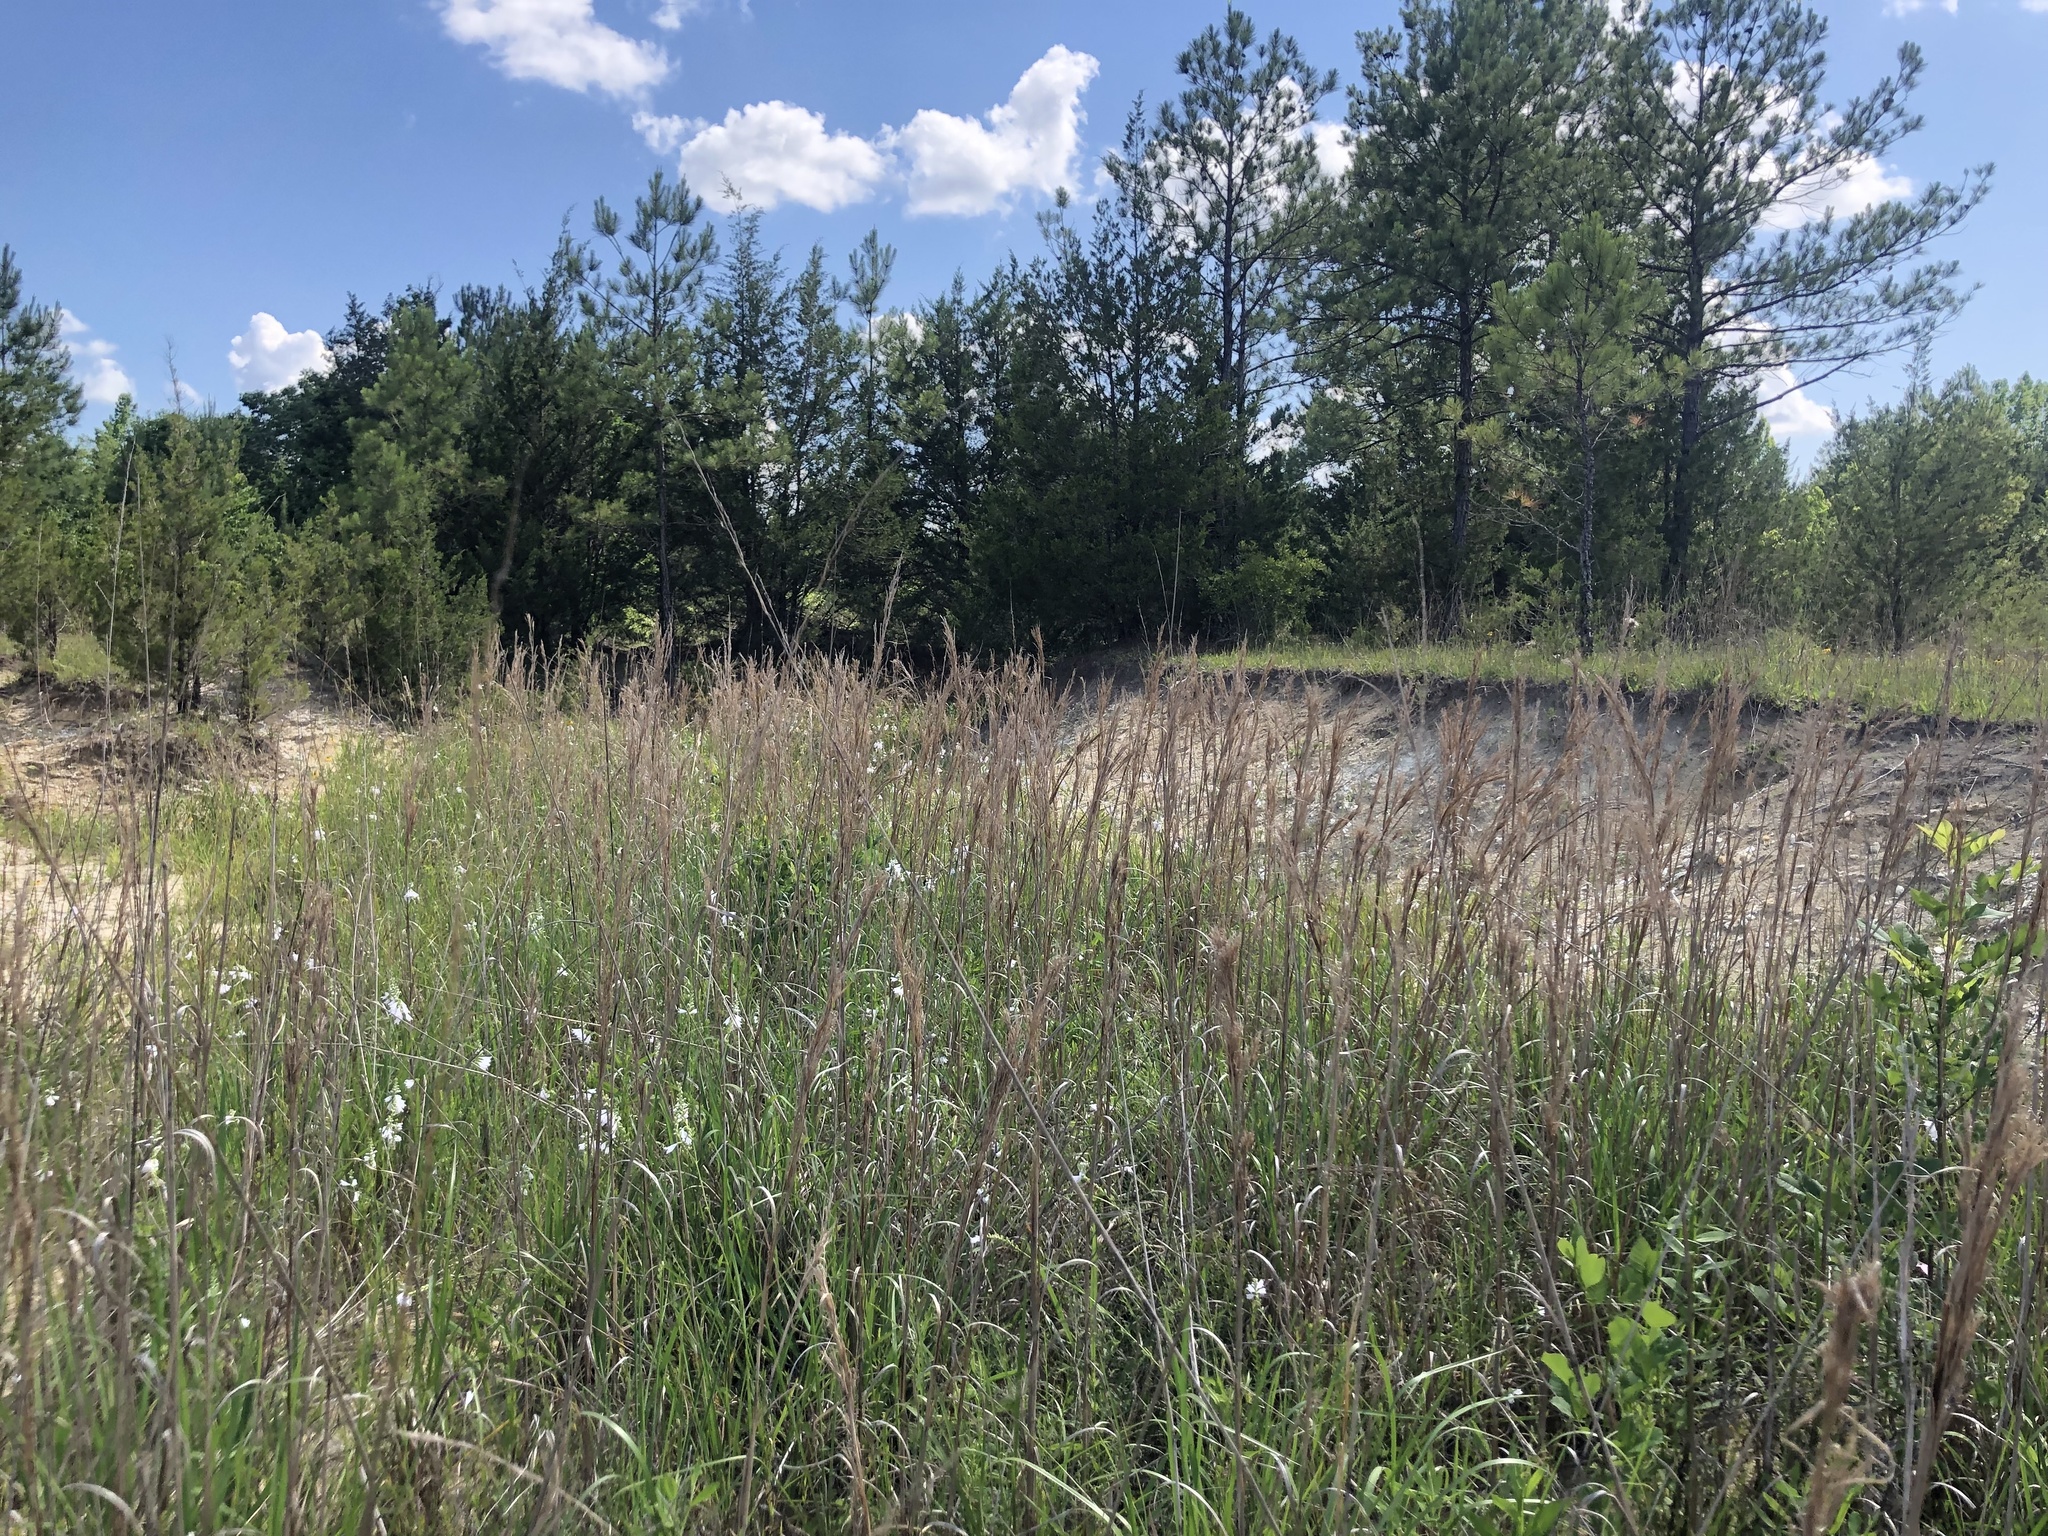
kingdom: Plantae
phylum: Tracheophyta
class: Liliopsida
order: Poales
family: Poaceae
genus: Andropogon
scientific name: Andropogon tenuispatheus
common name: Bushy bluestem
